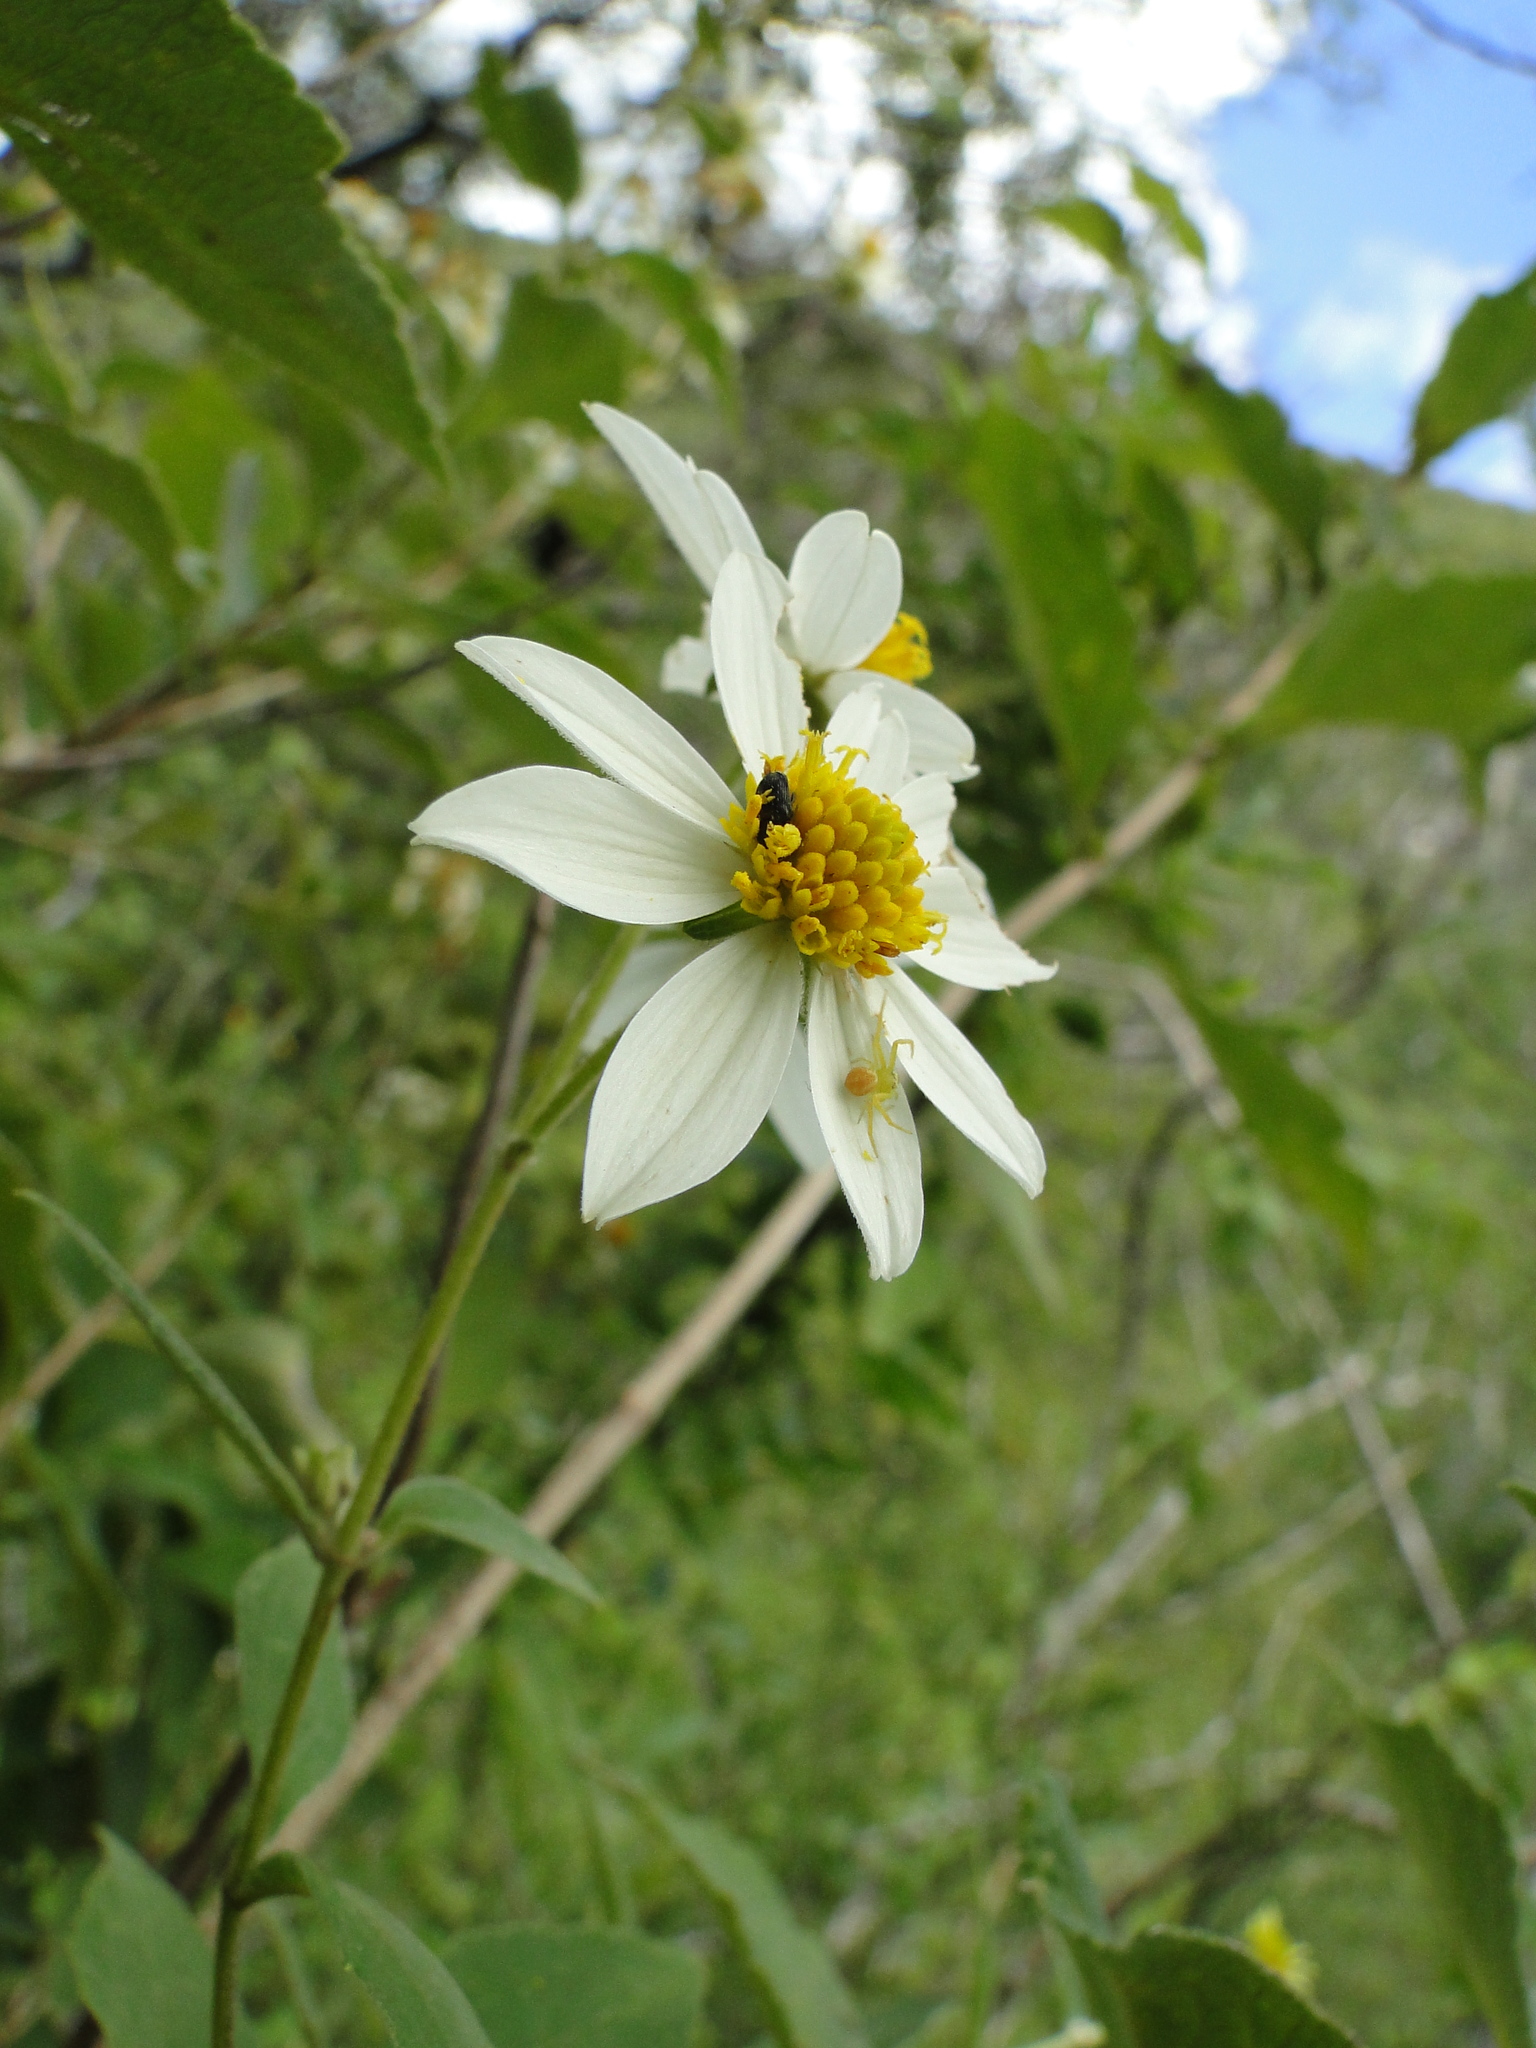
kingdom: Plantae
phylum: Tracheophyta
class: Magnoliopsida
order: Asterales
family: Asteraceae
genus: Montanoa
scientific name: Montanoa leucantha
